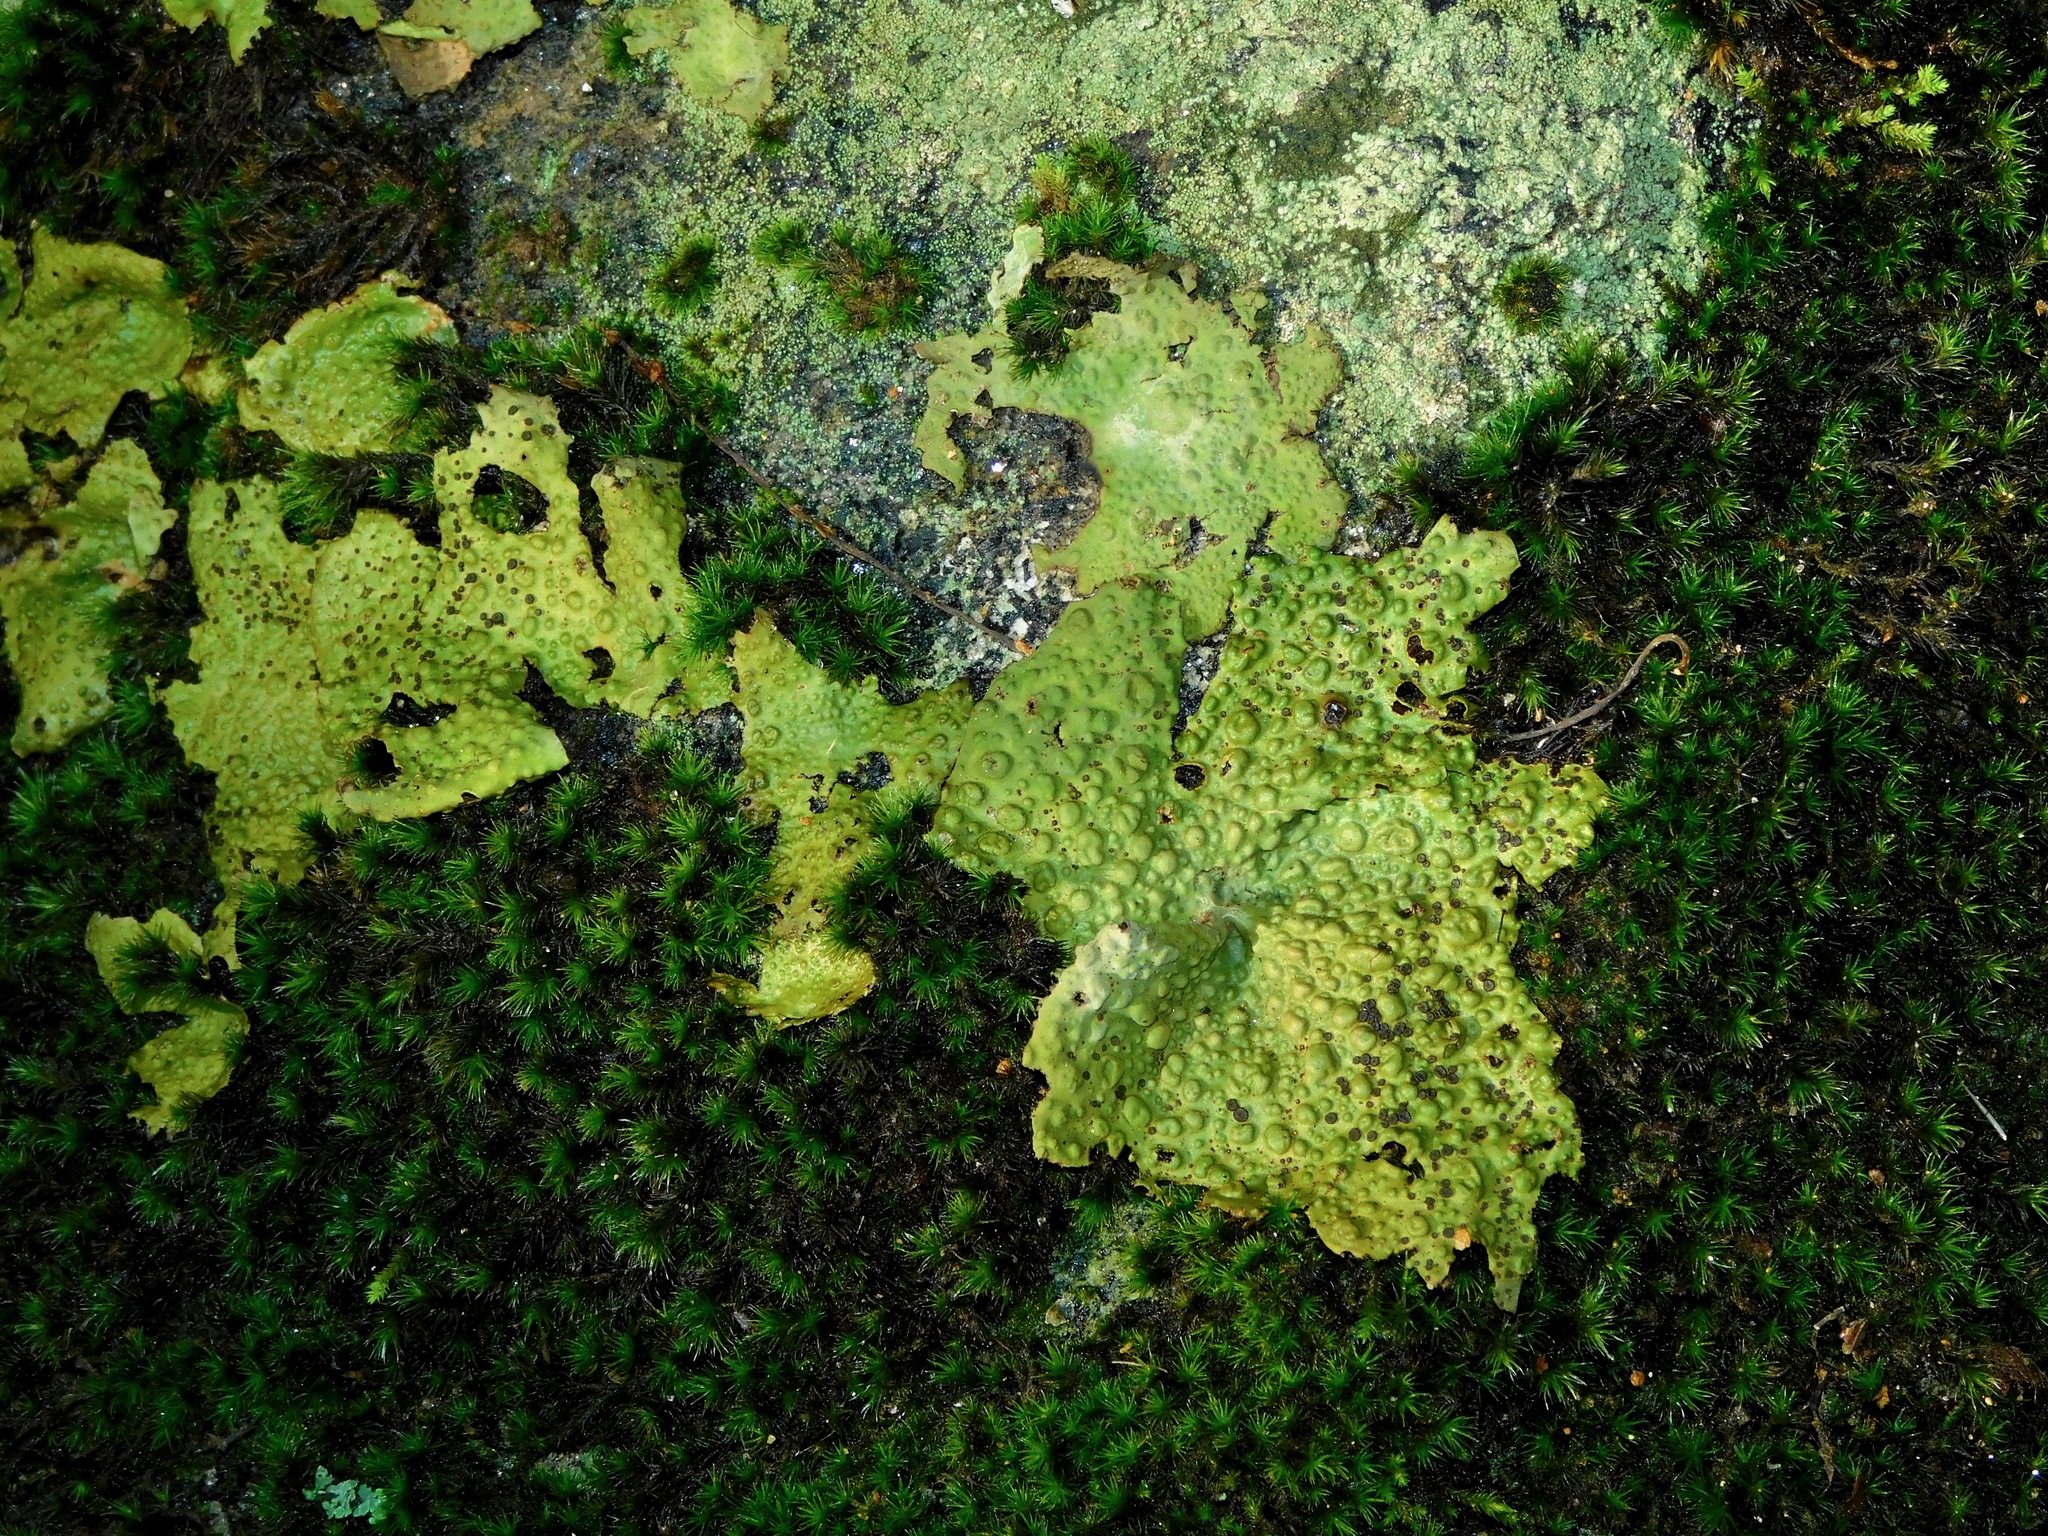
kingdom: Fungi
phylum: Ascomycota
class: Lecanoromycetes
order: Umbilicariales
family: Umbilicariaceae
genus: Lasallia
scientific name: Lasallia papulosa
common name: Common toadskin lichen
